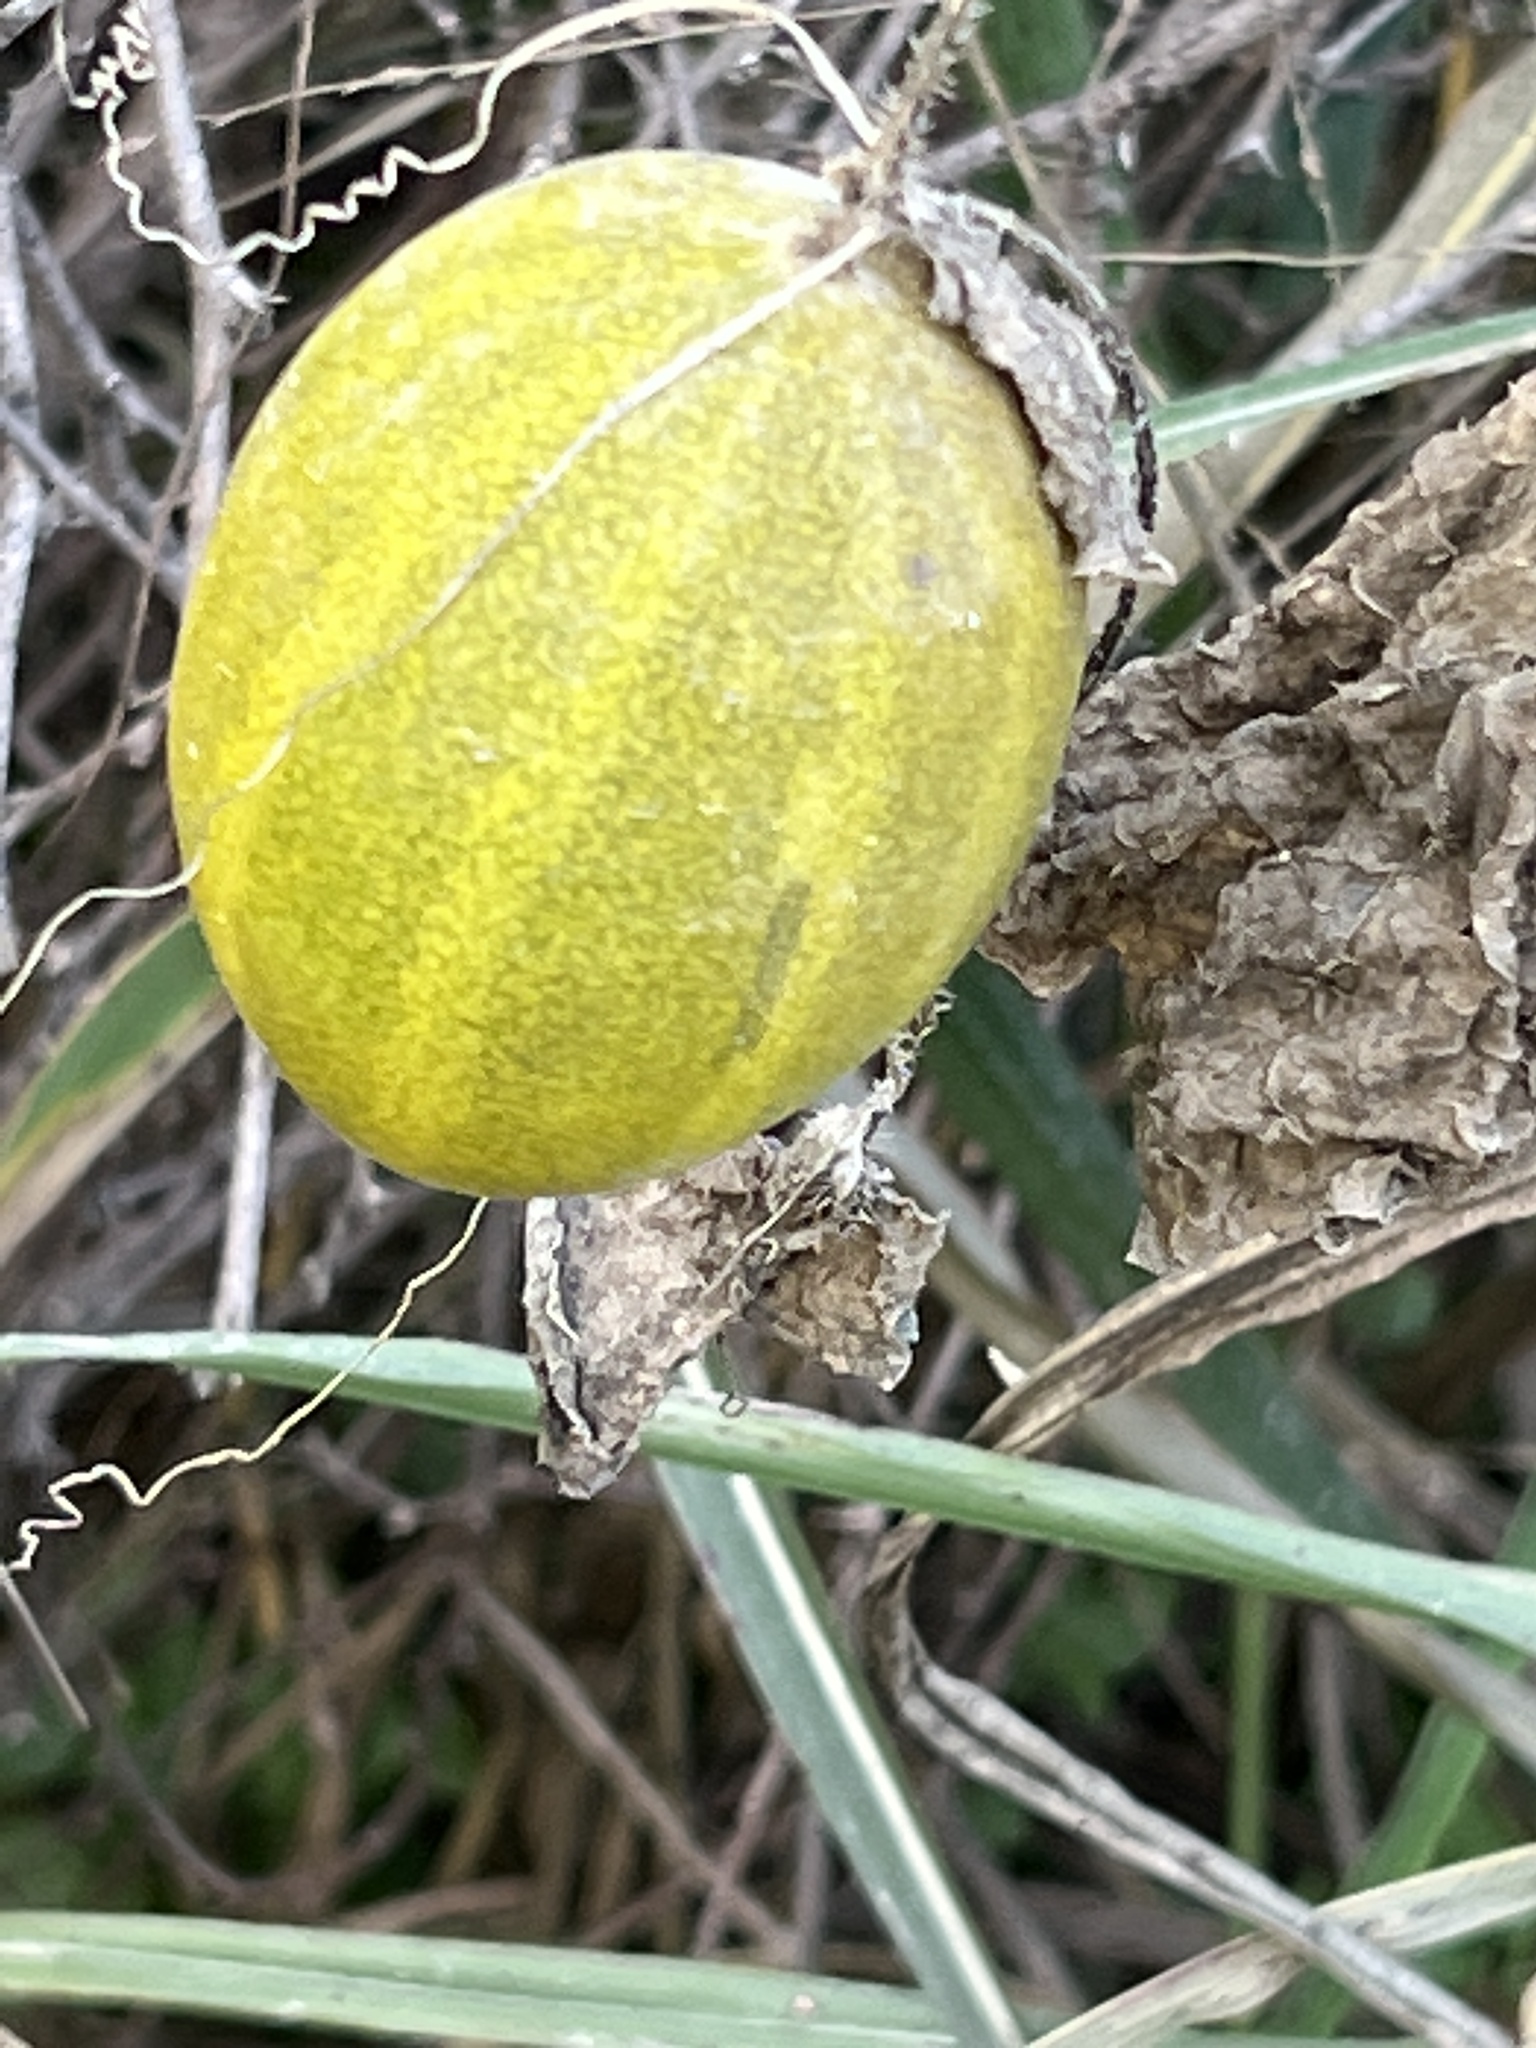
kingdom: Plantae
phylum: Tracheophyta
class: Magnoliopsida
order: Cucurbitales
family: Cucurbitaceae
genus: Cucurbita
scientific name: Cucurbita foetidissima
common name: Buffalo gourd
